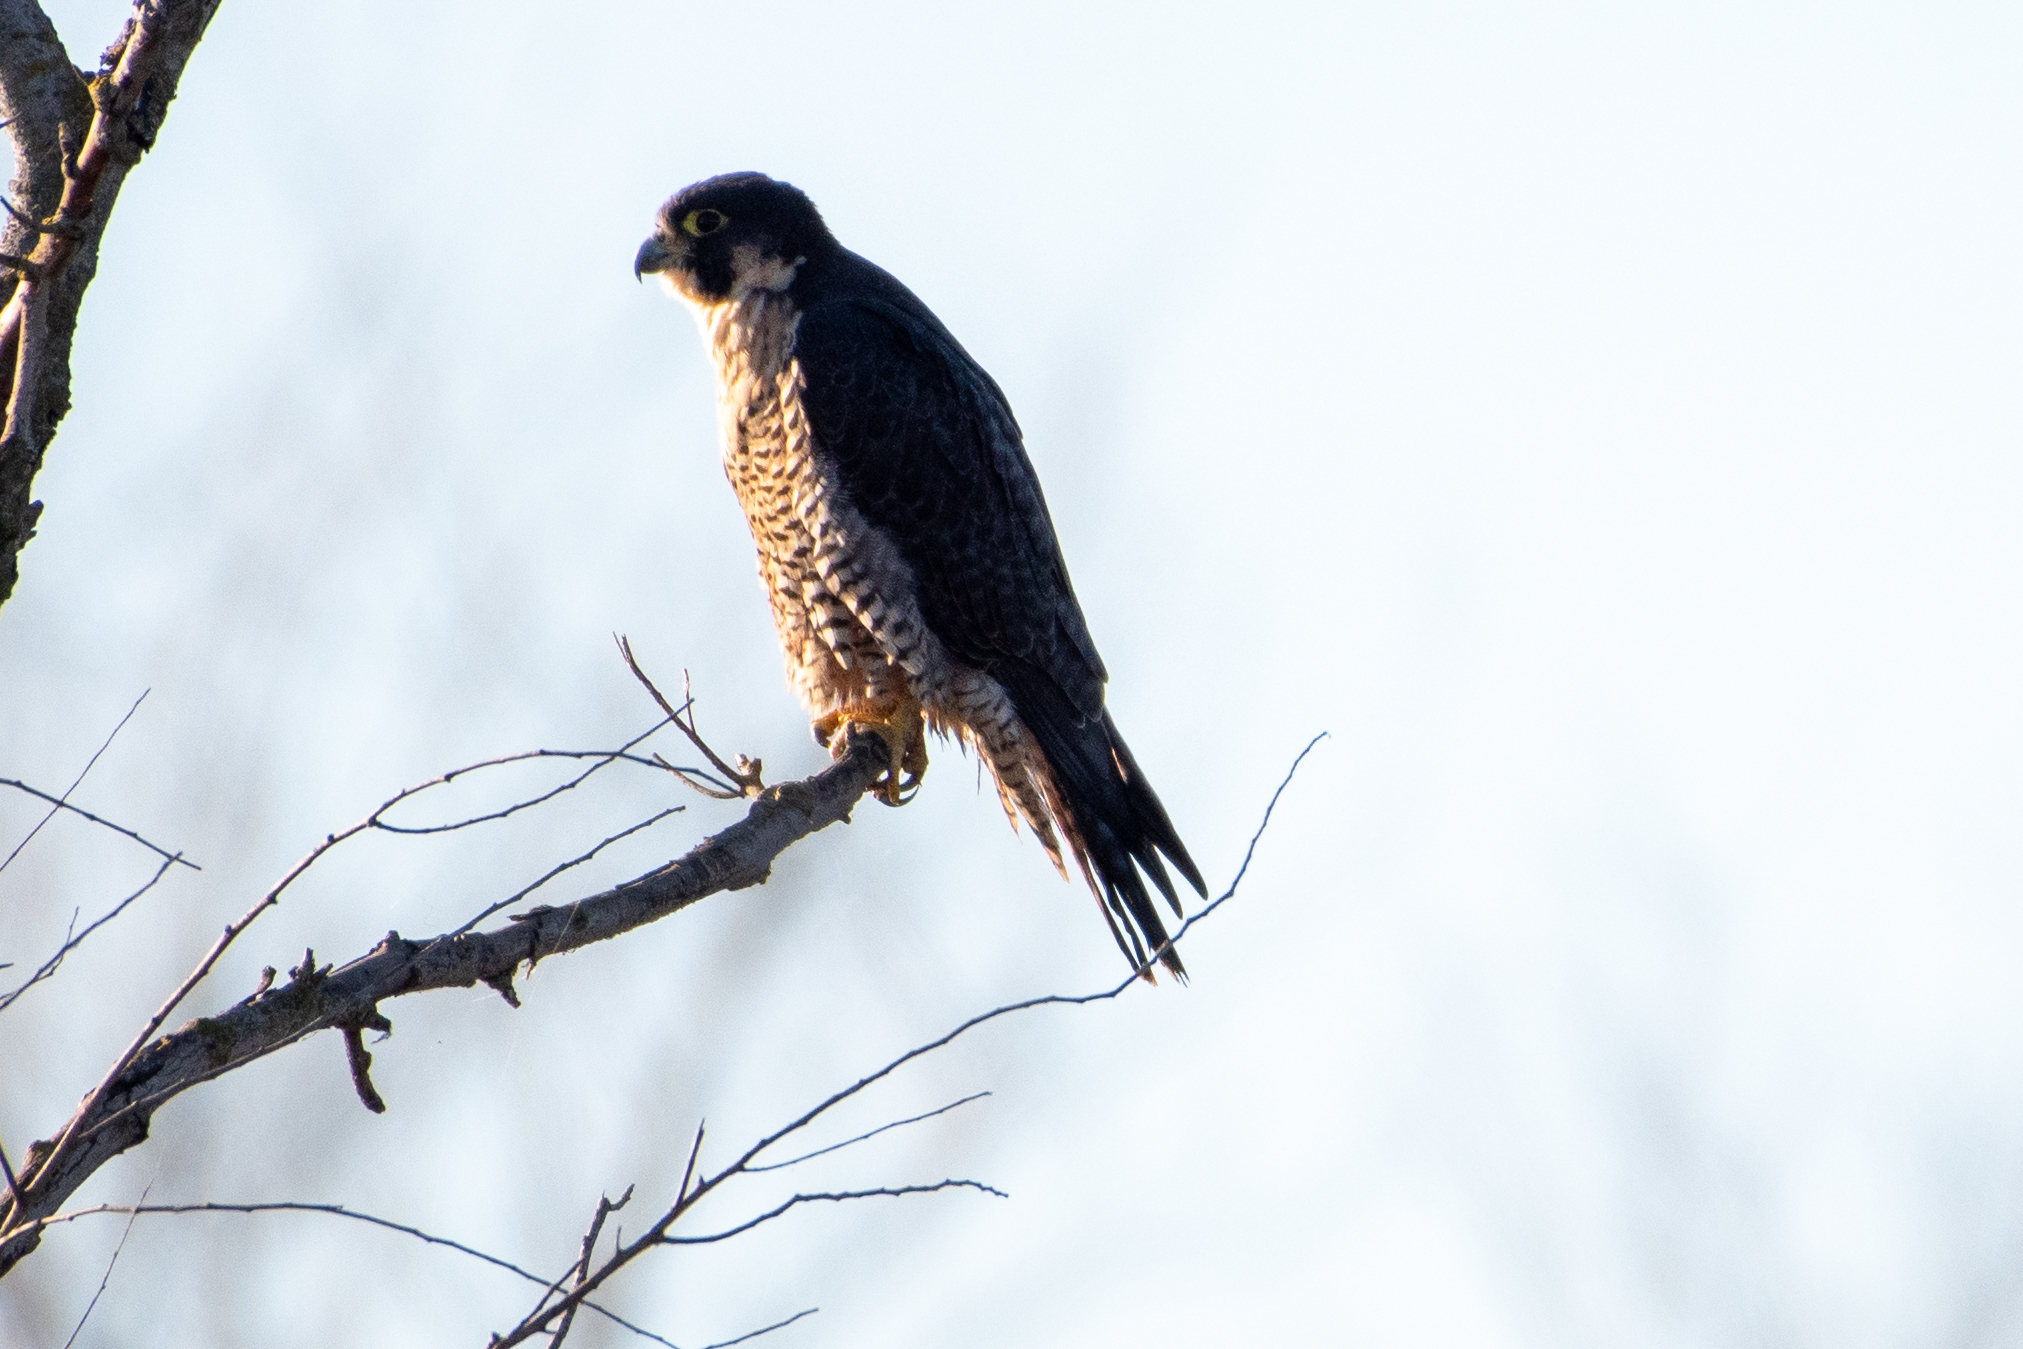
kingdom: Animalia
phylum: Chordata
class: Aves
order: Falconiformes
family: Falconidae
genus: Falco
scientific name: Falco peregrinus
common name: Peregrine falcon
